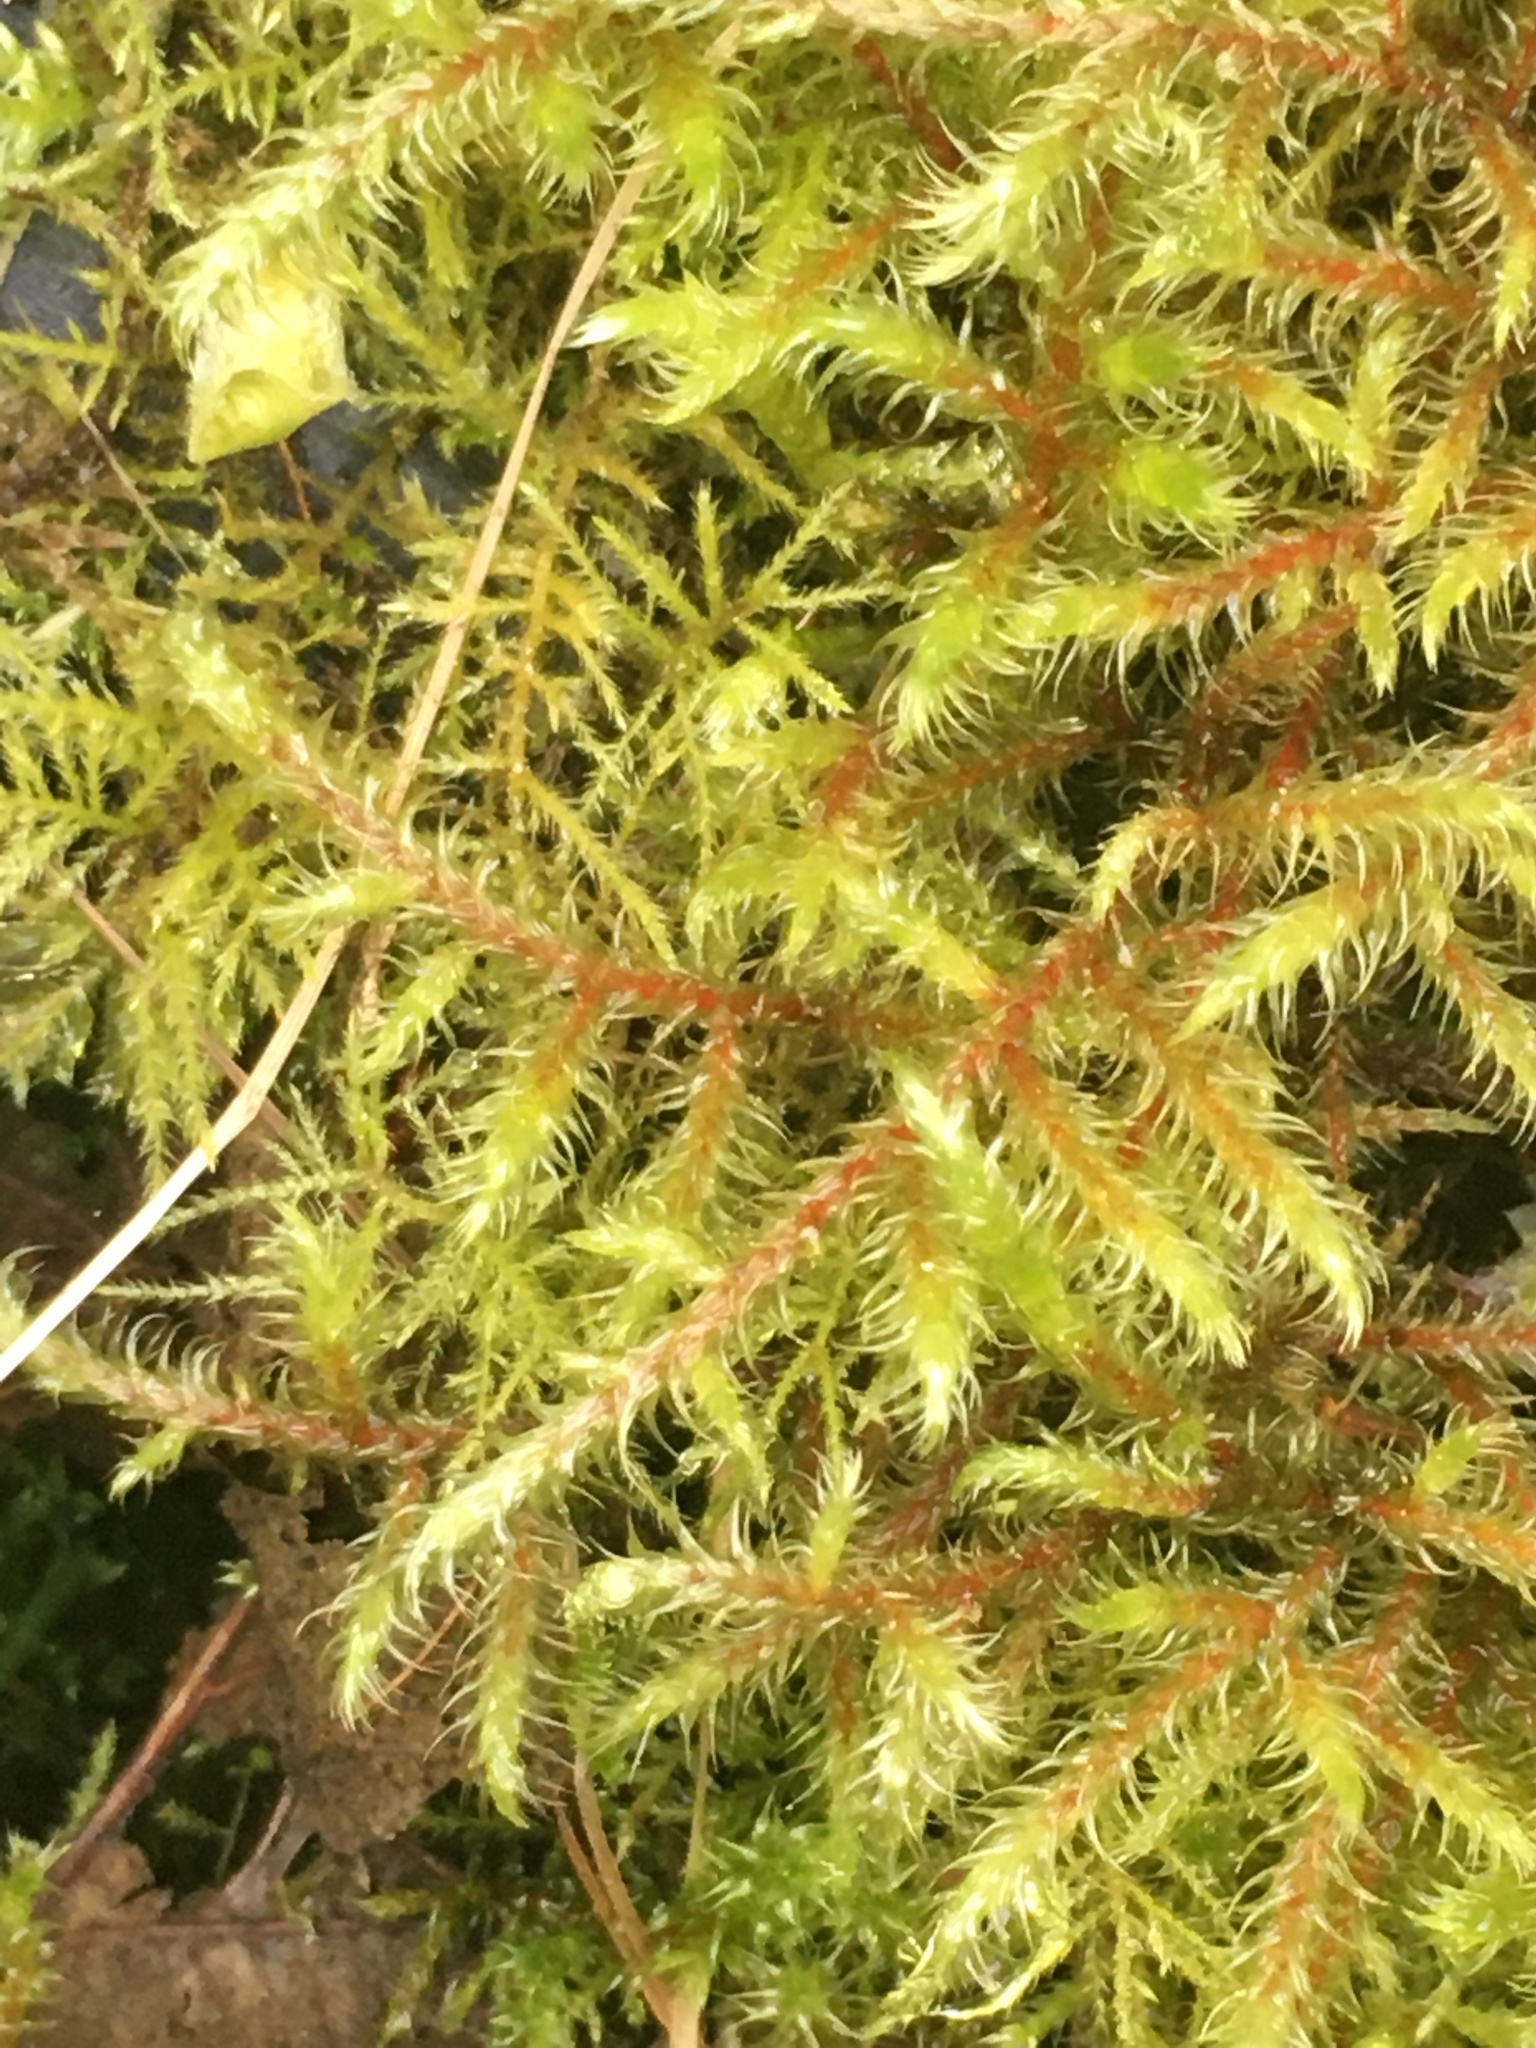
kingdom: Plantae
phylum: Bryophyta
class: Bryopsida
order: Hypnales
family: Hylocomiaceae
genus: Rhytidiadelphus
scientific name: Rhytidiadelphus loreus
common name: Lanky moss
